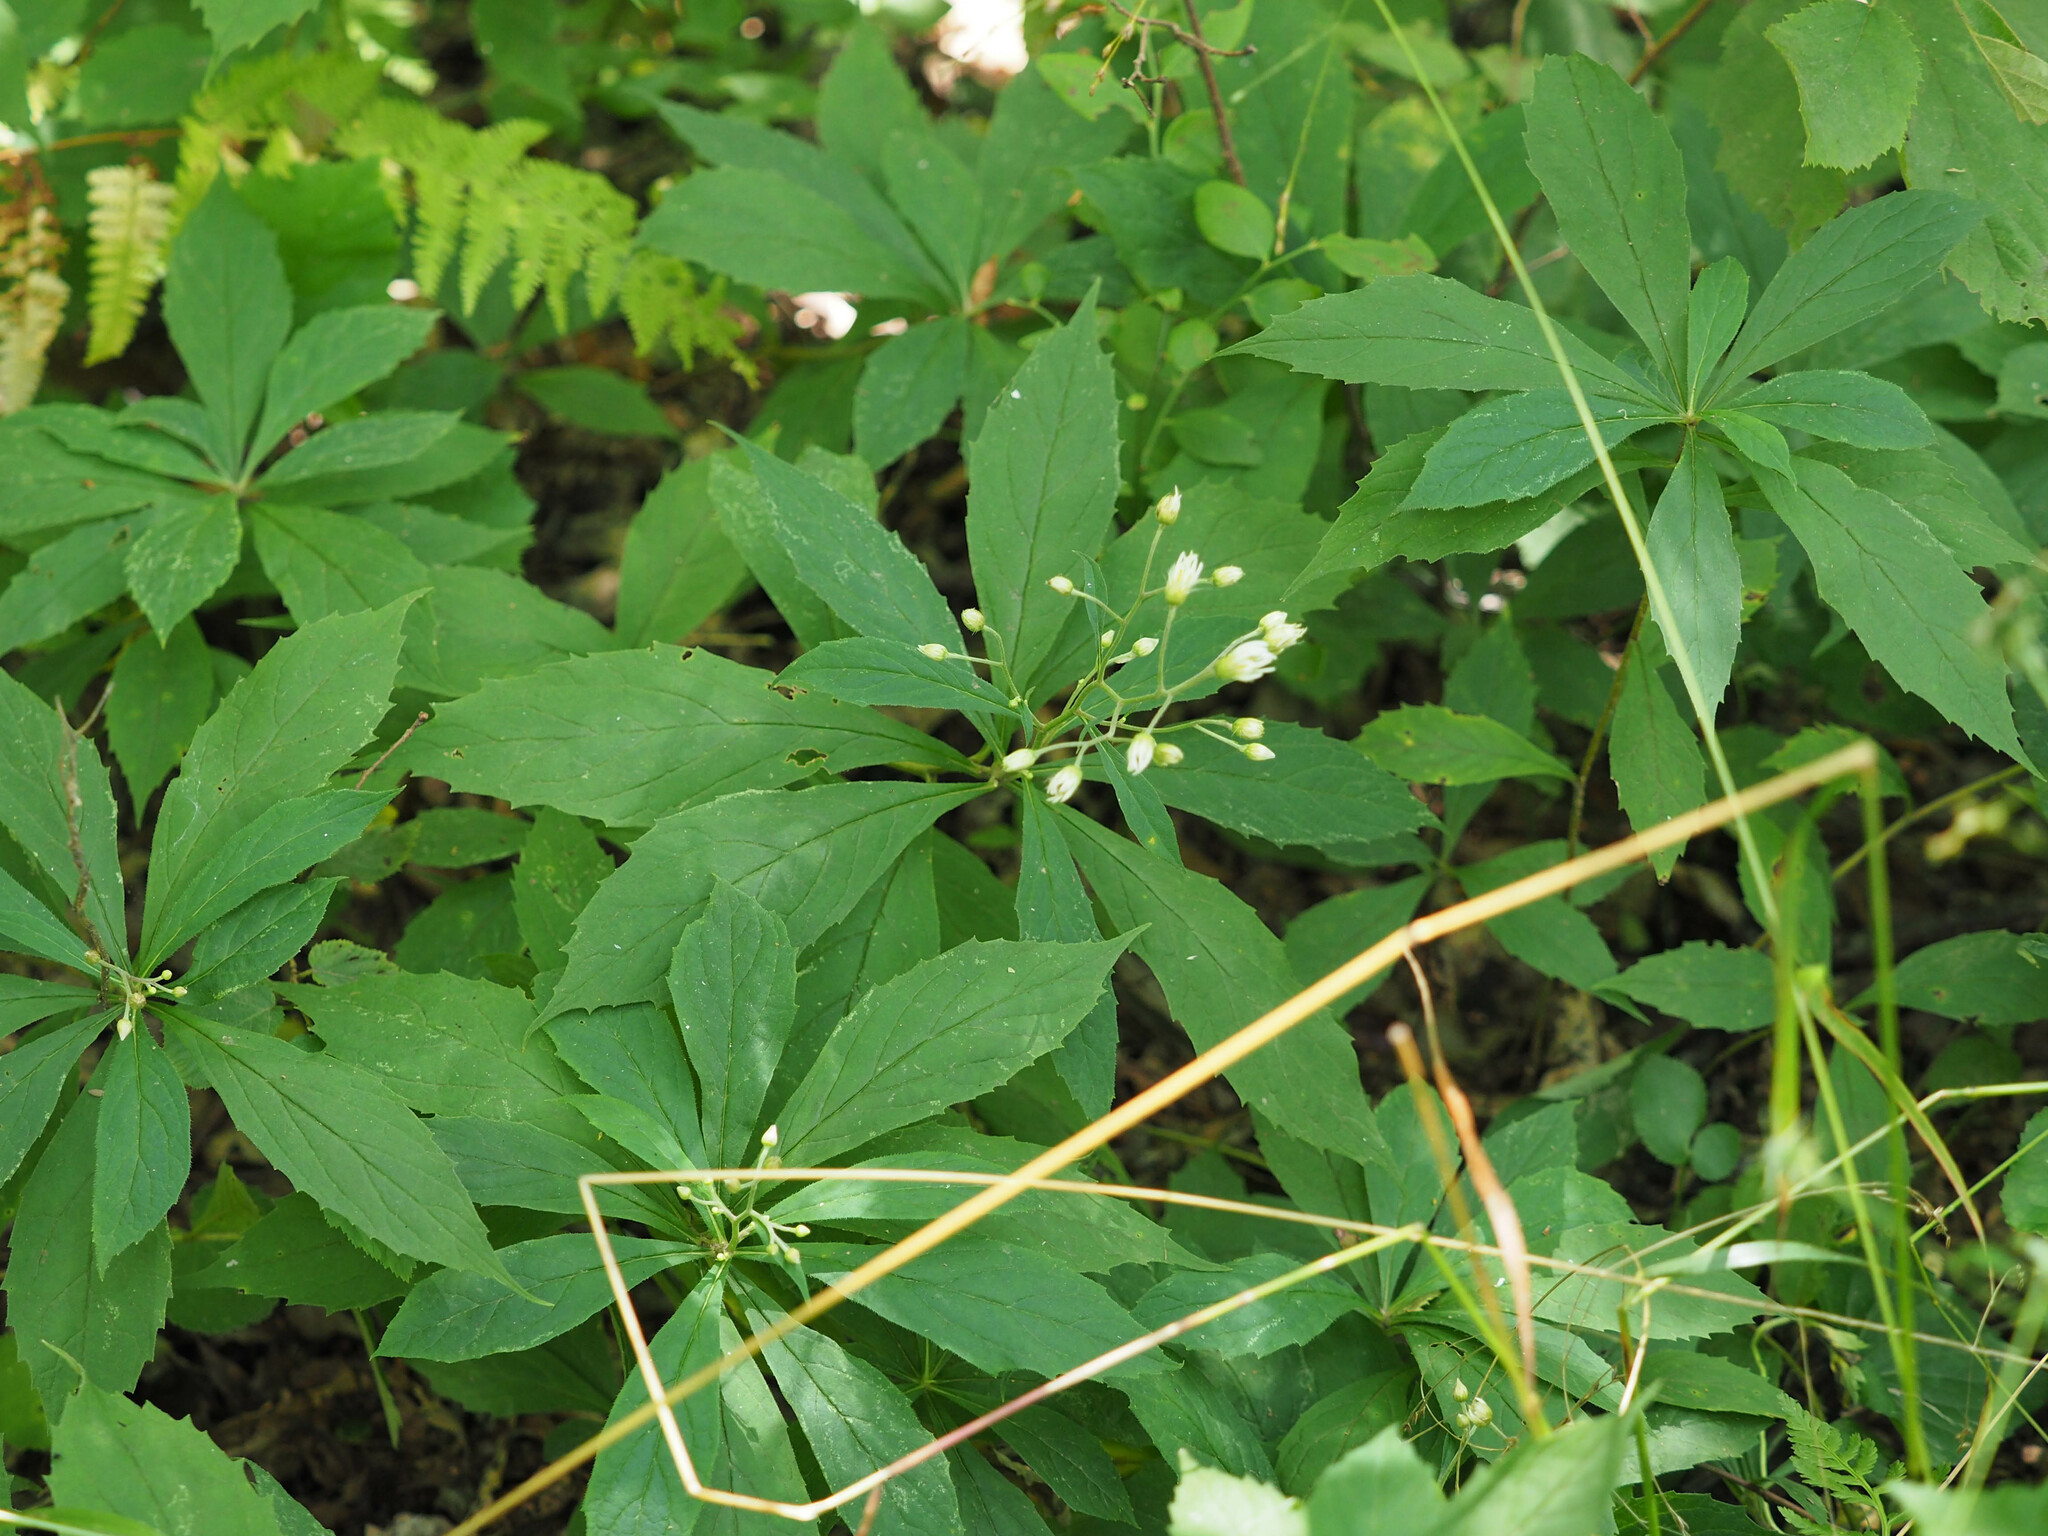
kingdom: Plantae
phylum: Tracheophyta
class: Magnoliopsida
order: Asterales
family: Asteraceae
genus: Oclemena
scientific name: Oclemena acuminata
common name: Mountain aster
